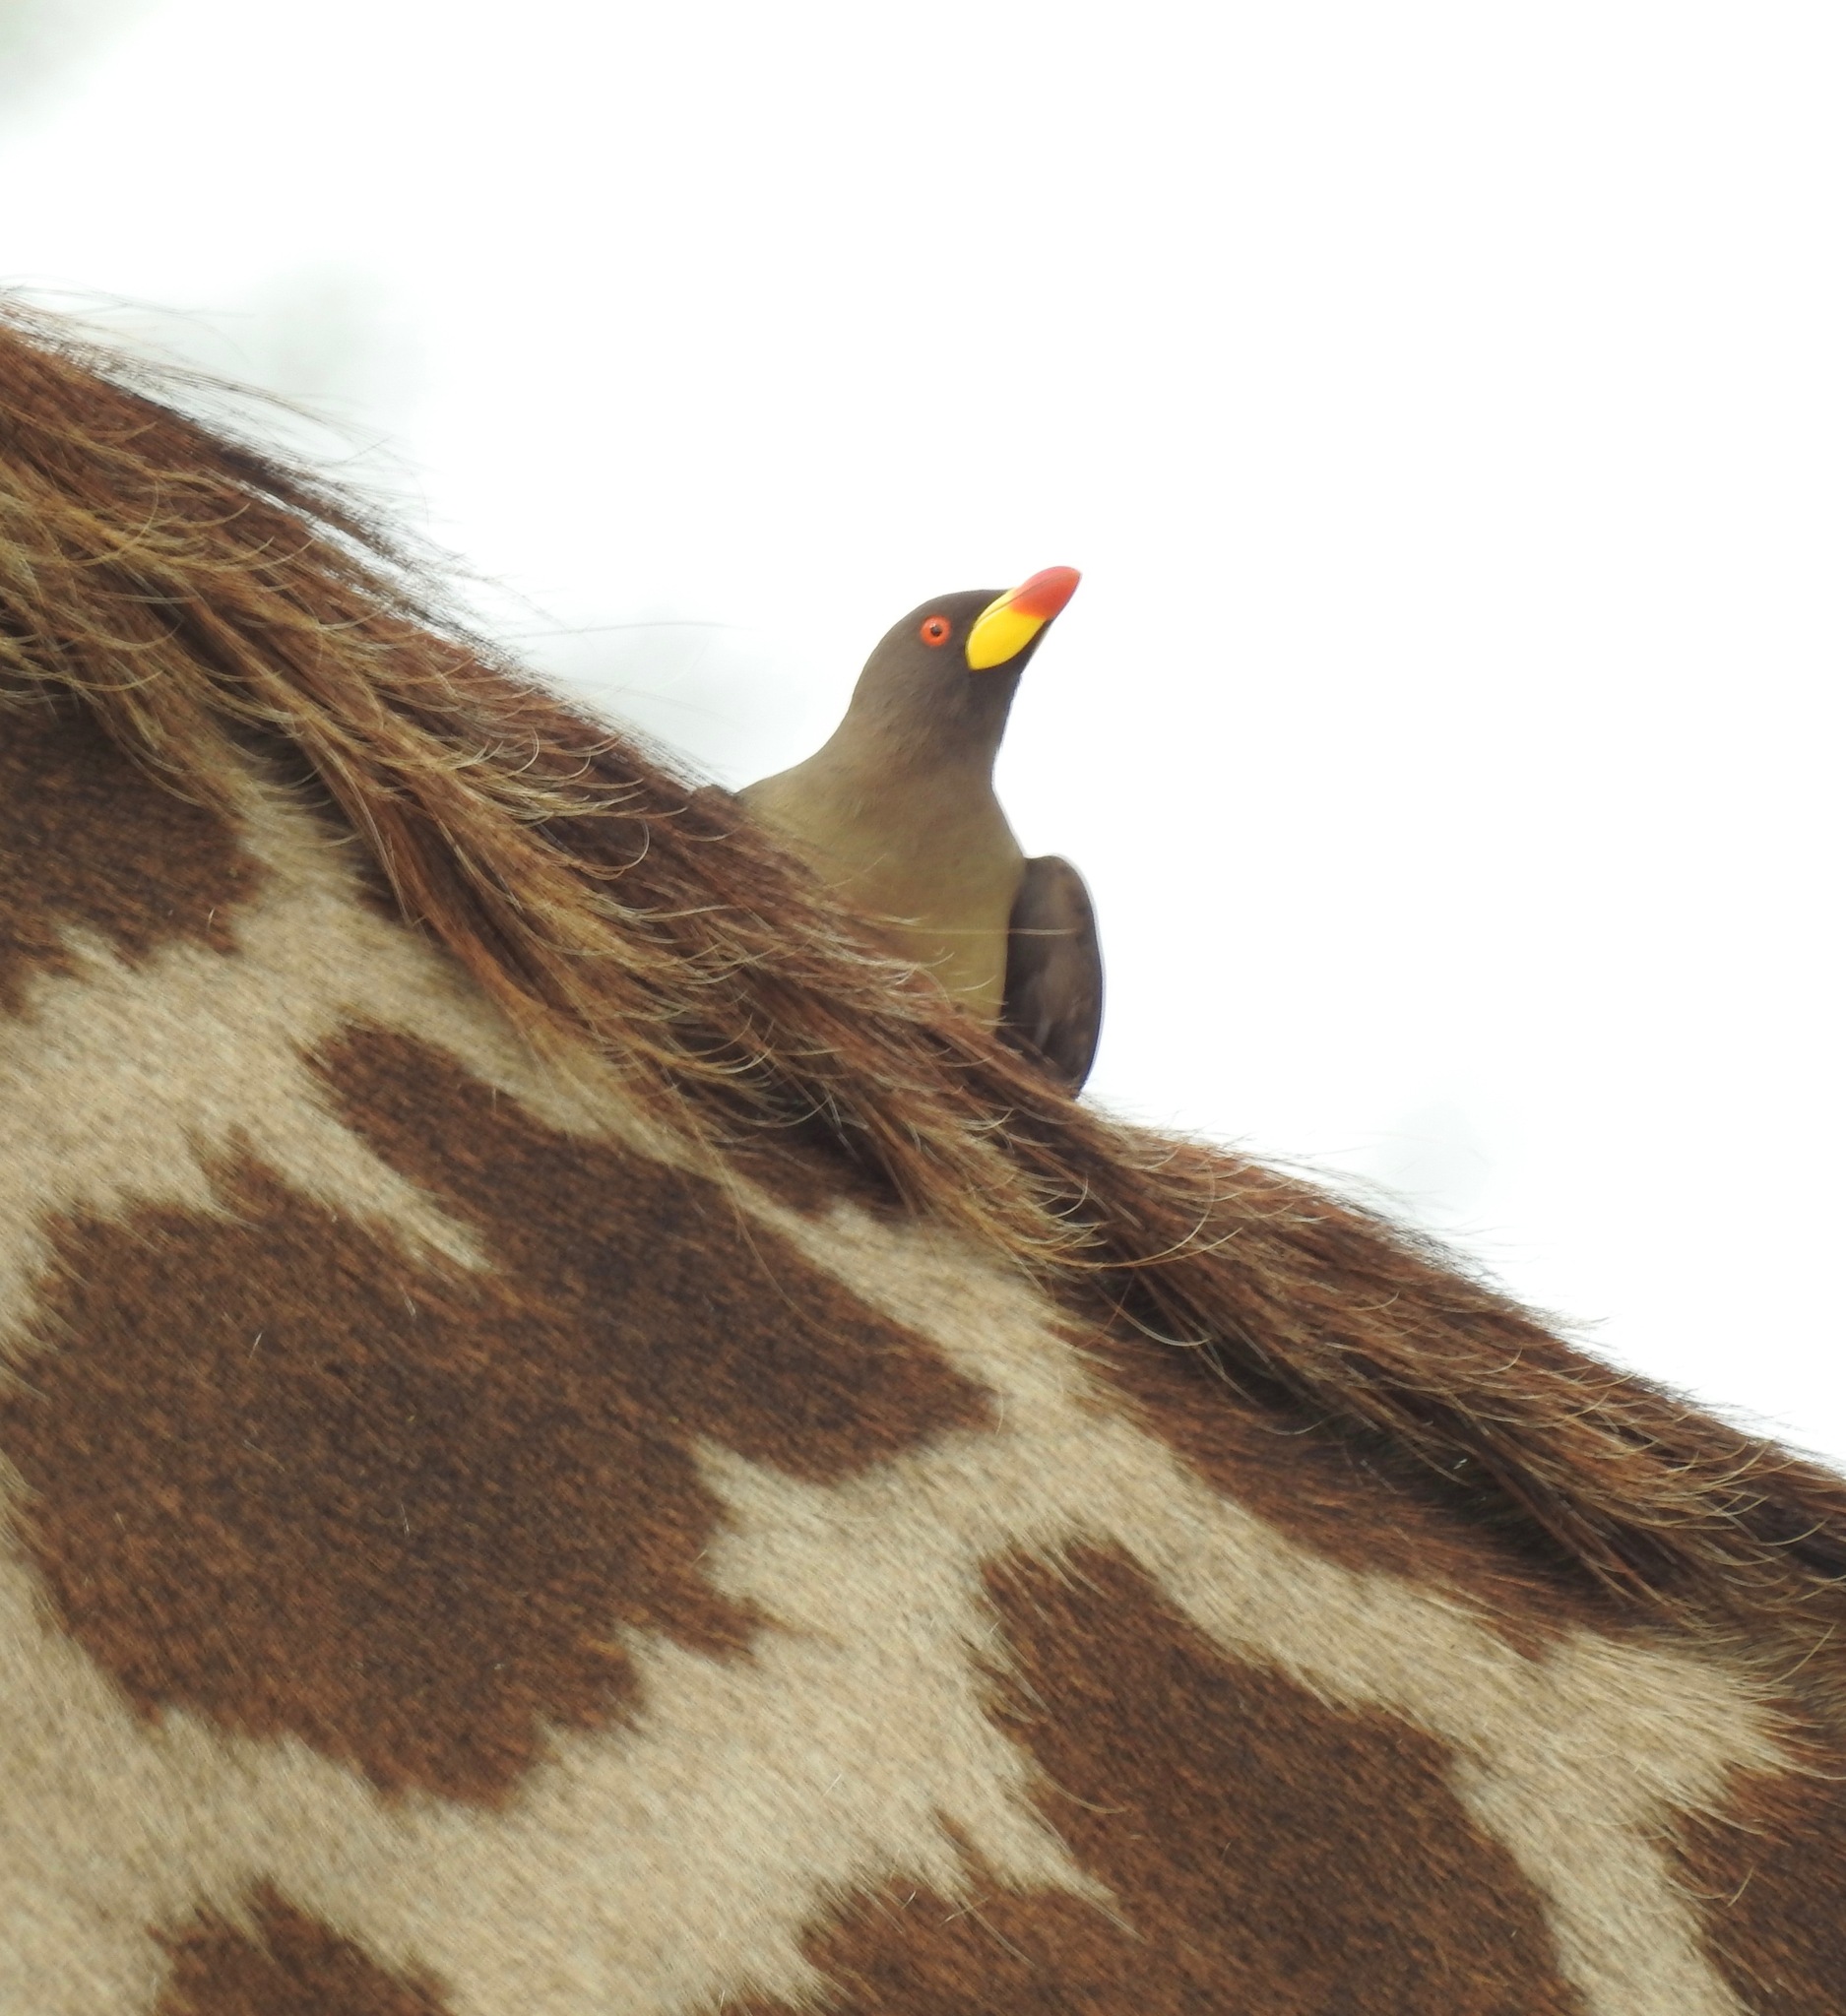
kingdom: Animalia
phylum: Chordata
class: Aves
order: Passeriformes
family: Buphagidae
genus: Buphagus
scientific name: Buphagus africanus
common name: Yellow-billed oxpecker
